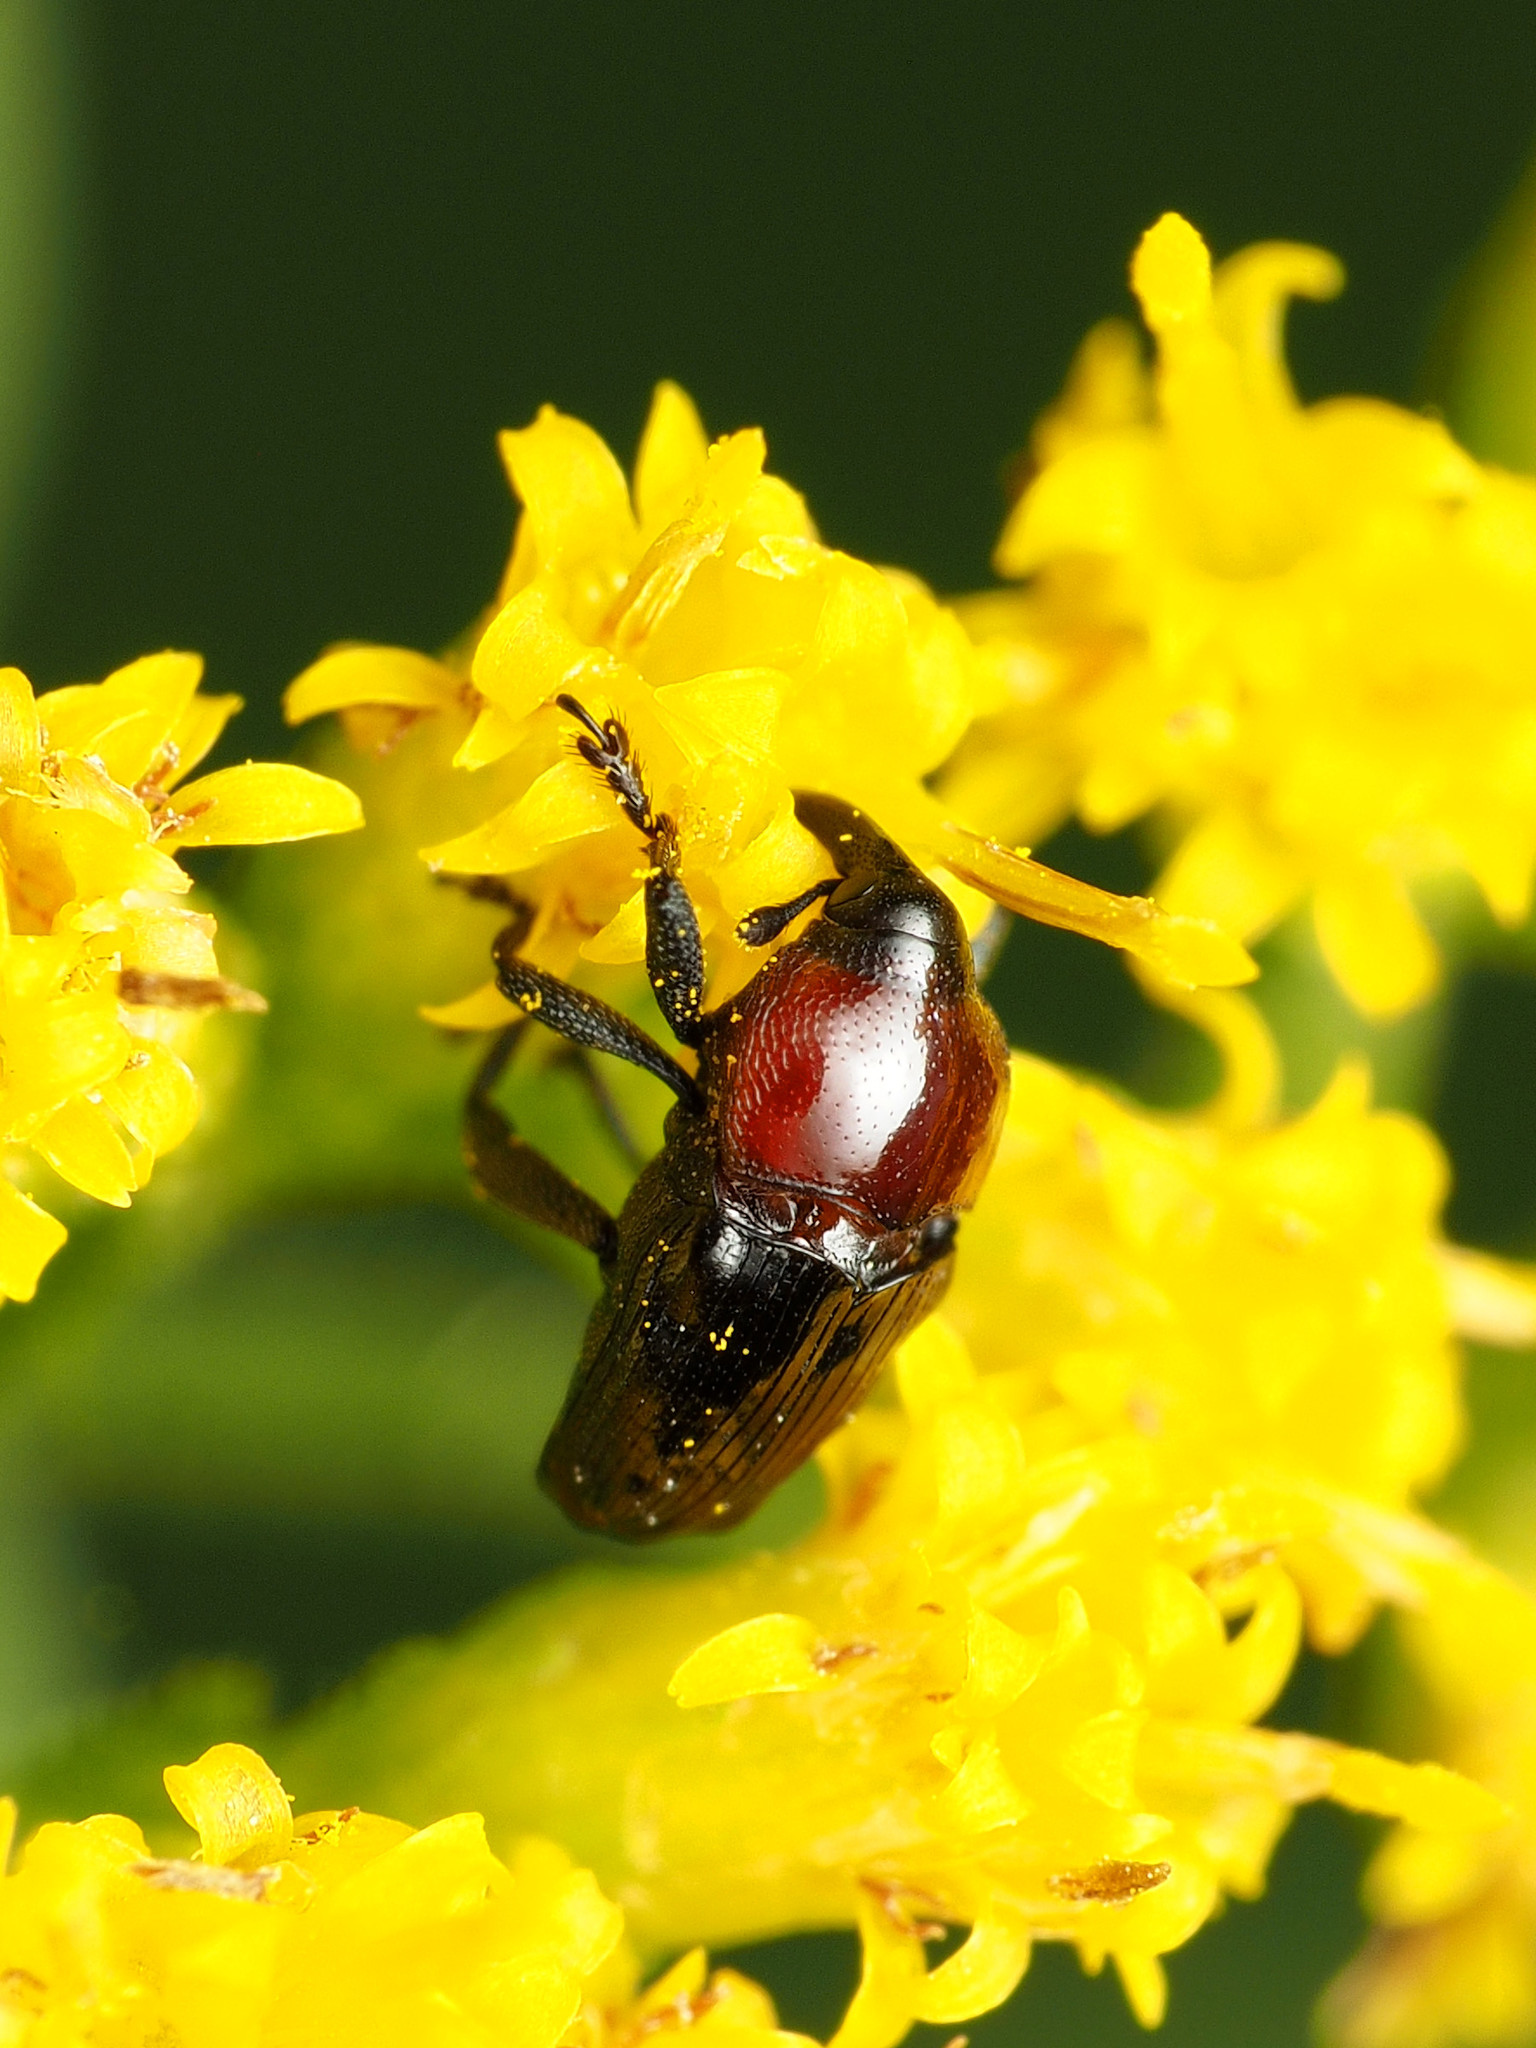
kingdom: Animalia
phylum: Arthropoda
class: Insecta
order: Coleoptera
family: Curculionidae
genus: Madarellus
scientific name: Madarellus undulatus
